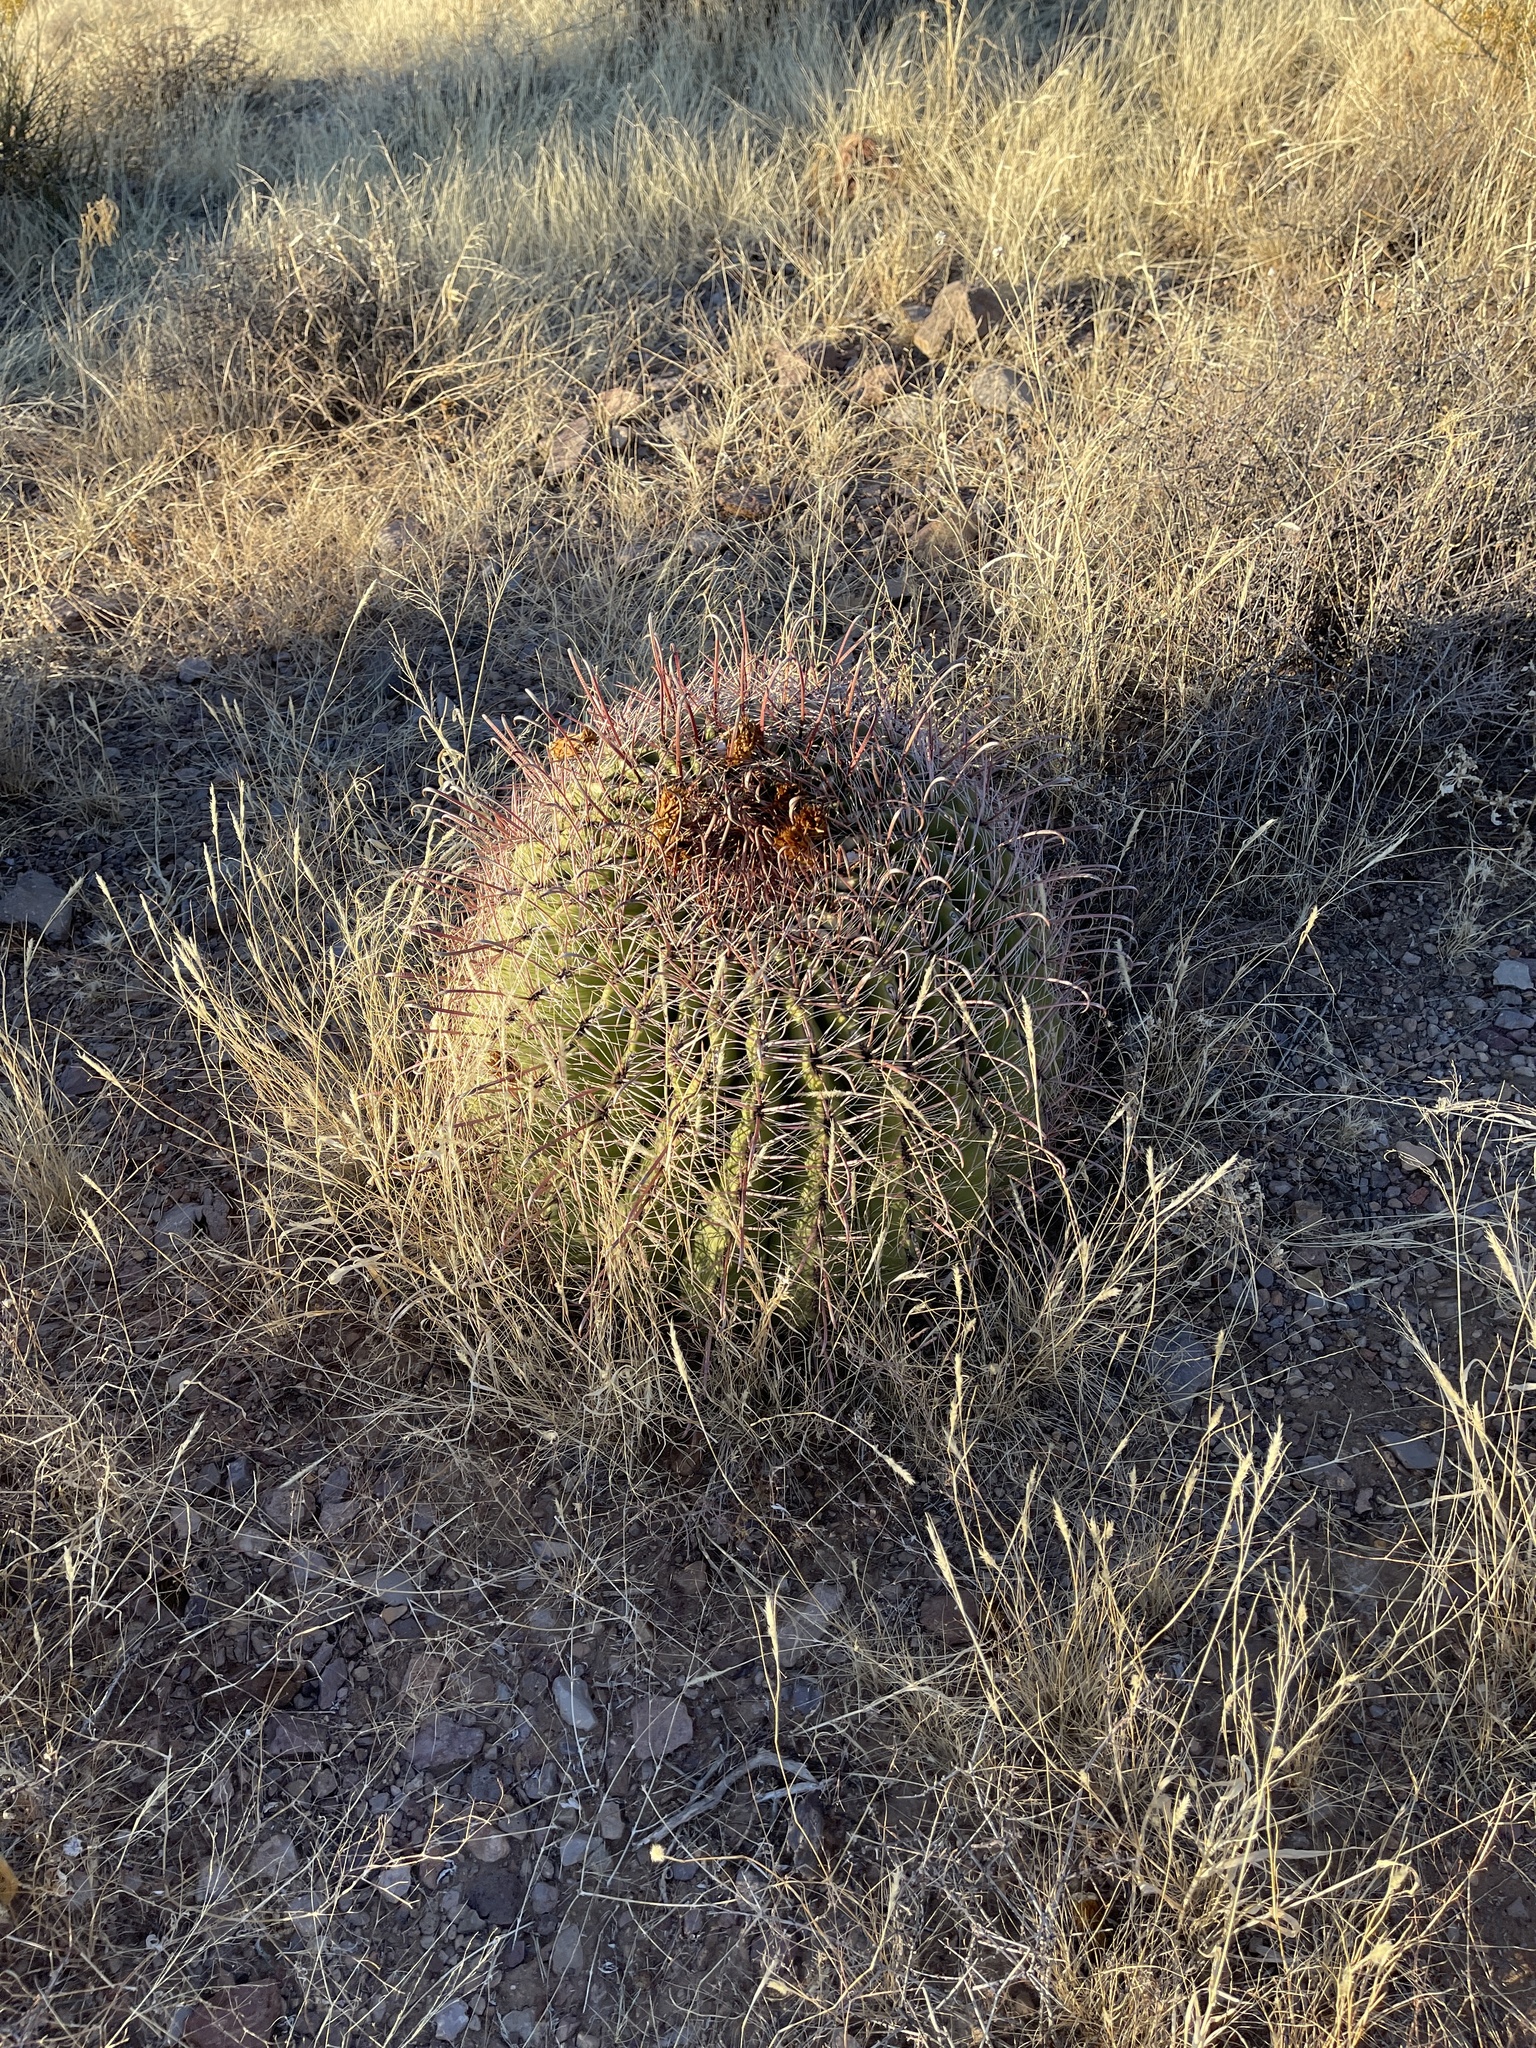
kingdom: Plantae
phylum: Tracheophyta
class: Magnoliopsida
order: Caryophyllales
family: Cactaceae
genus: Ferocactus
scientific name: Ferocactus wislizeni
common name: Candy barrel cactus
